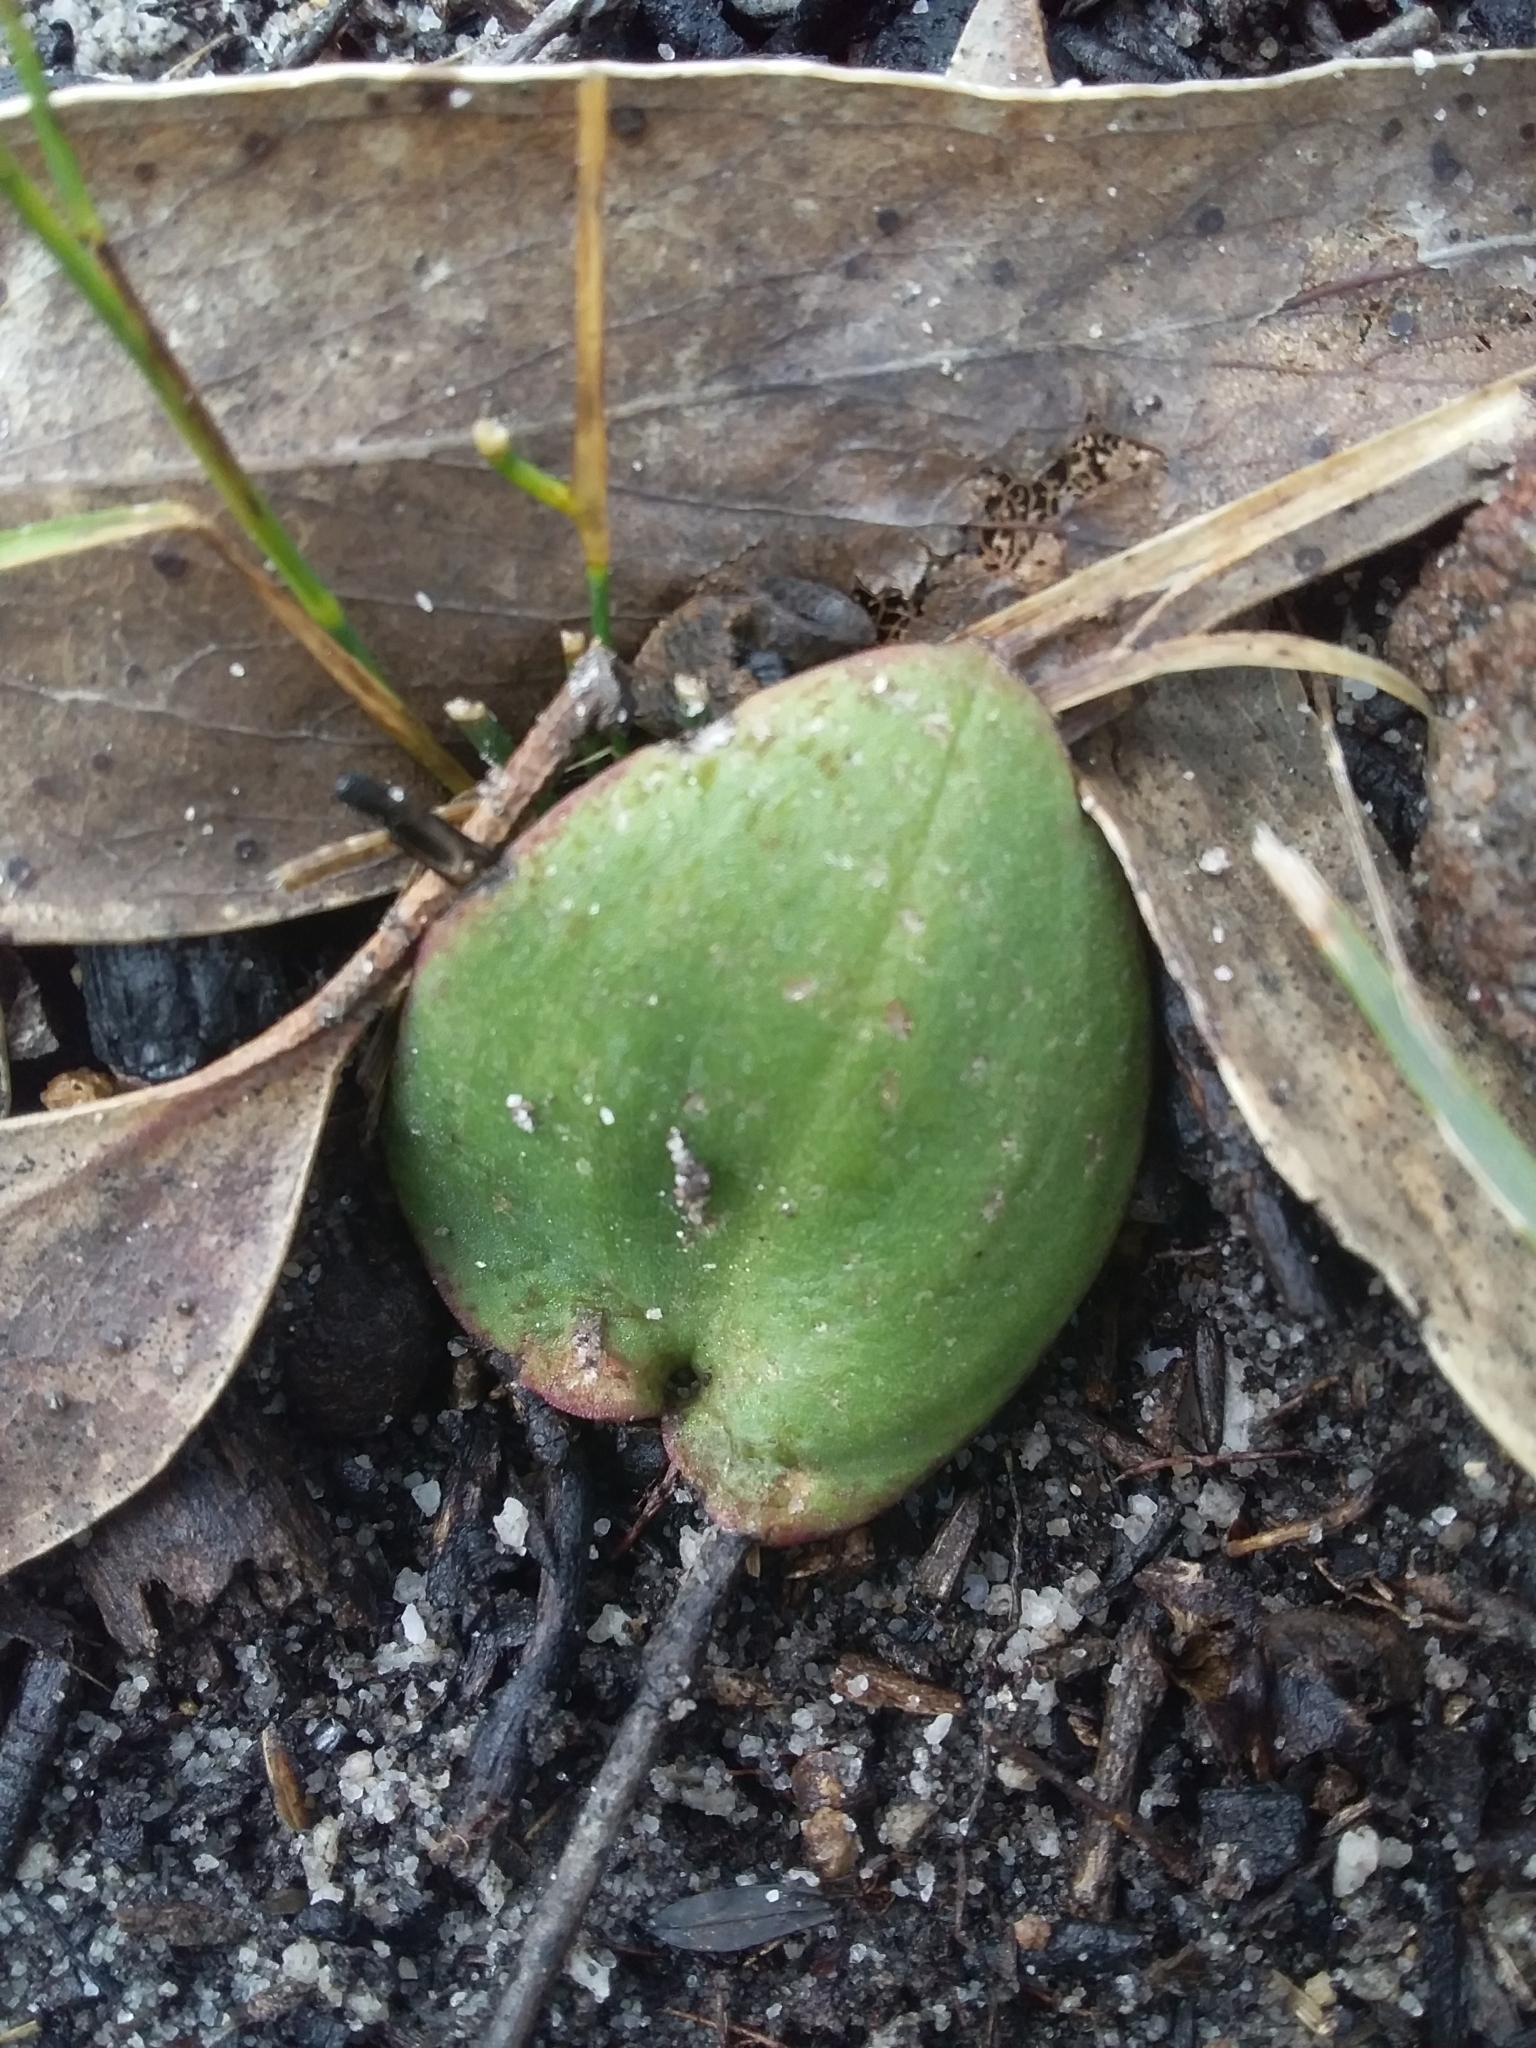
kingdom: Plantae
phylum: Tracheophyta
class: Liliopsida
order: Asparagales
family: Orchidaceae
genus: Pyrorchis
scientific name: Pyrorchis nigricans
